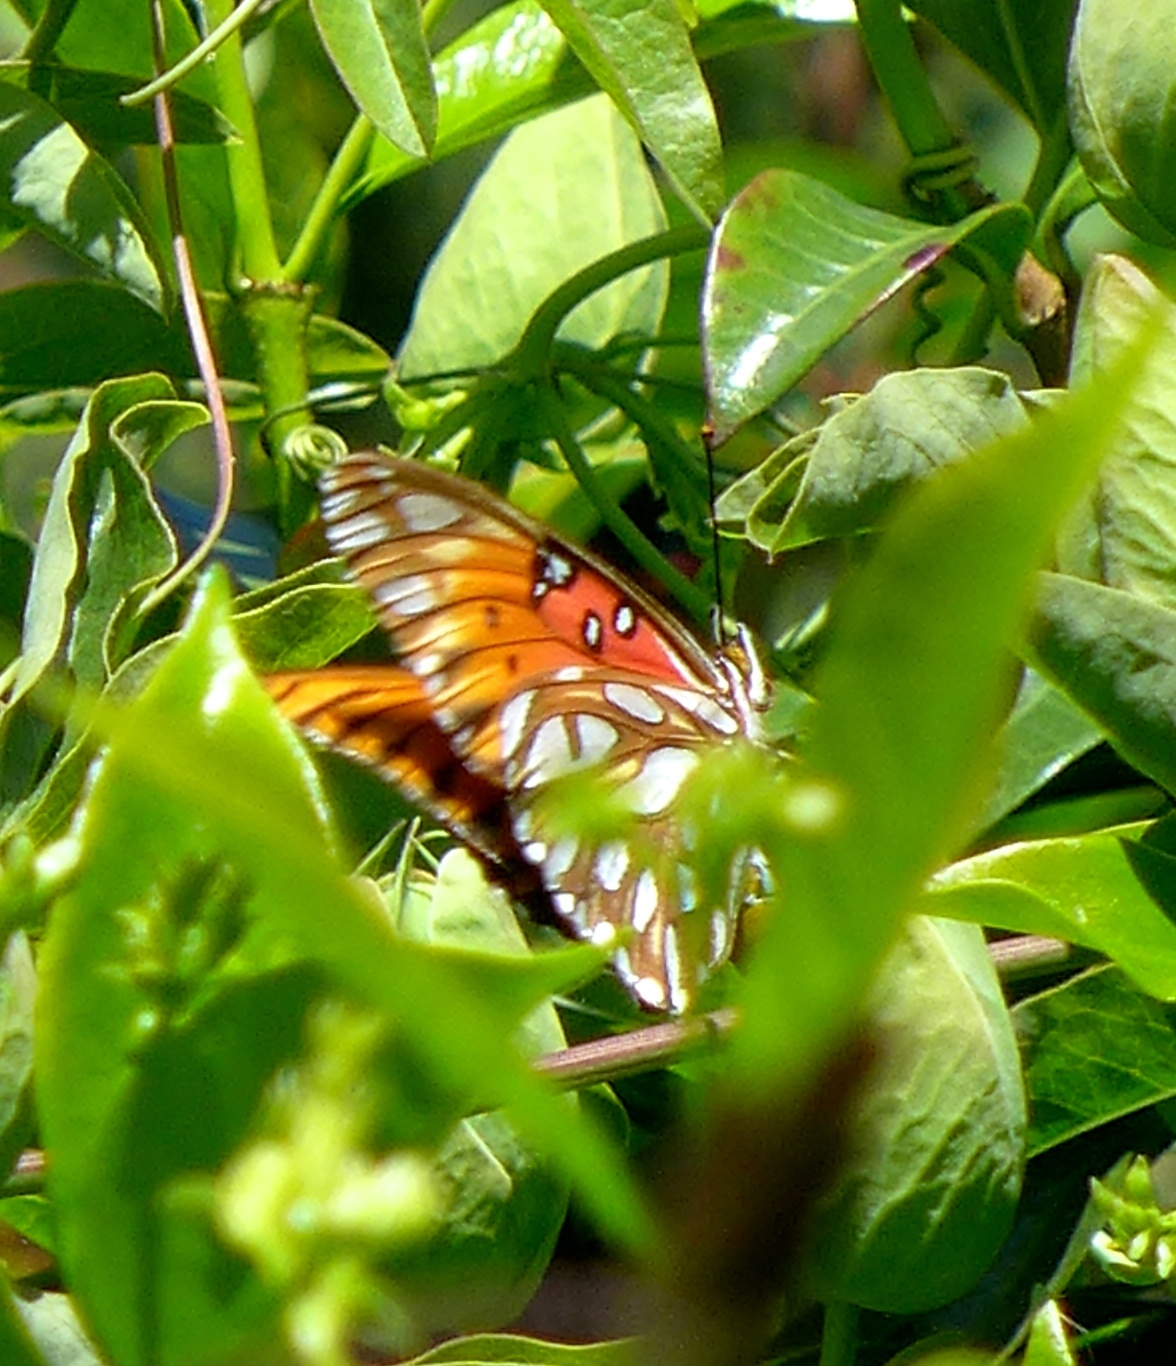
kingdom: Animalia
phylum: Arthropoda
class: Insecta
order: Lepidoptera
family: Nymphalidae
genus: Dione
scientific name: Dione vanillae
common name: Gulf fritillary
